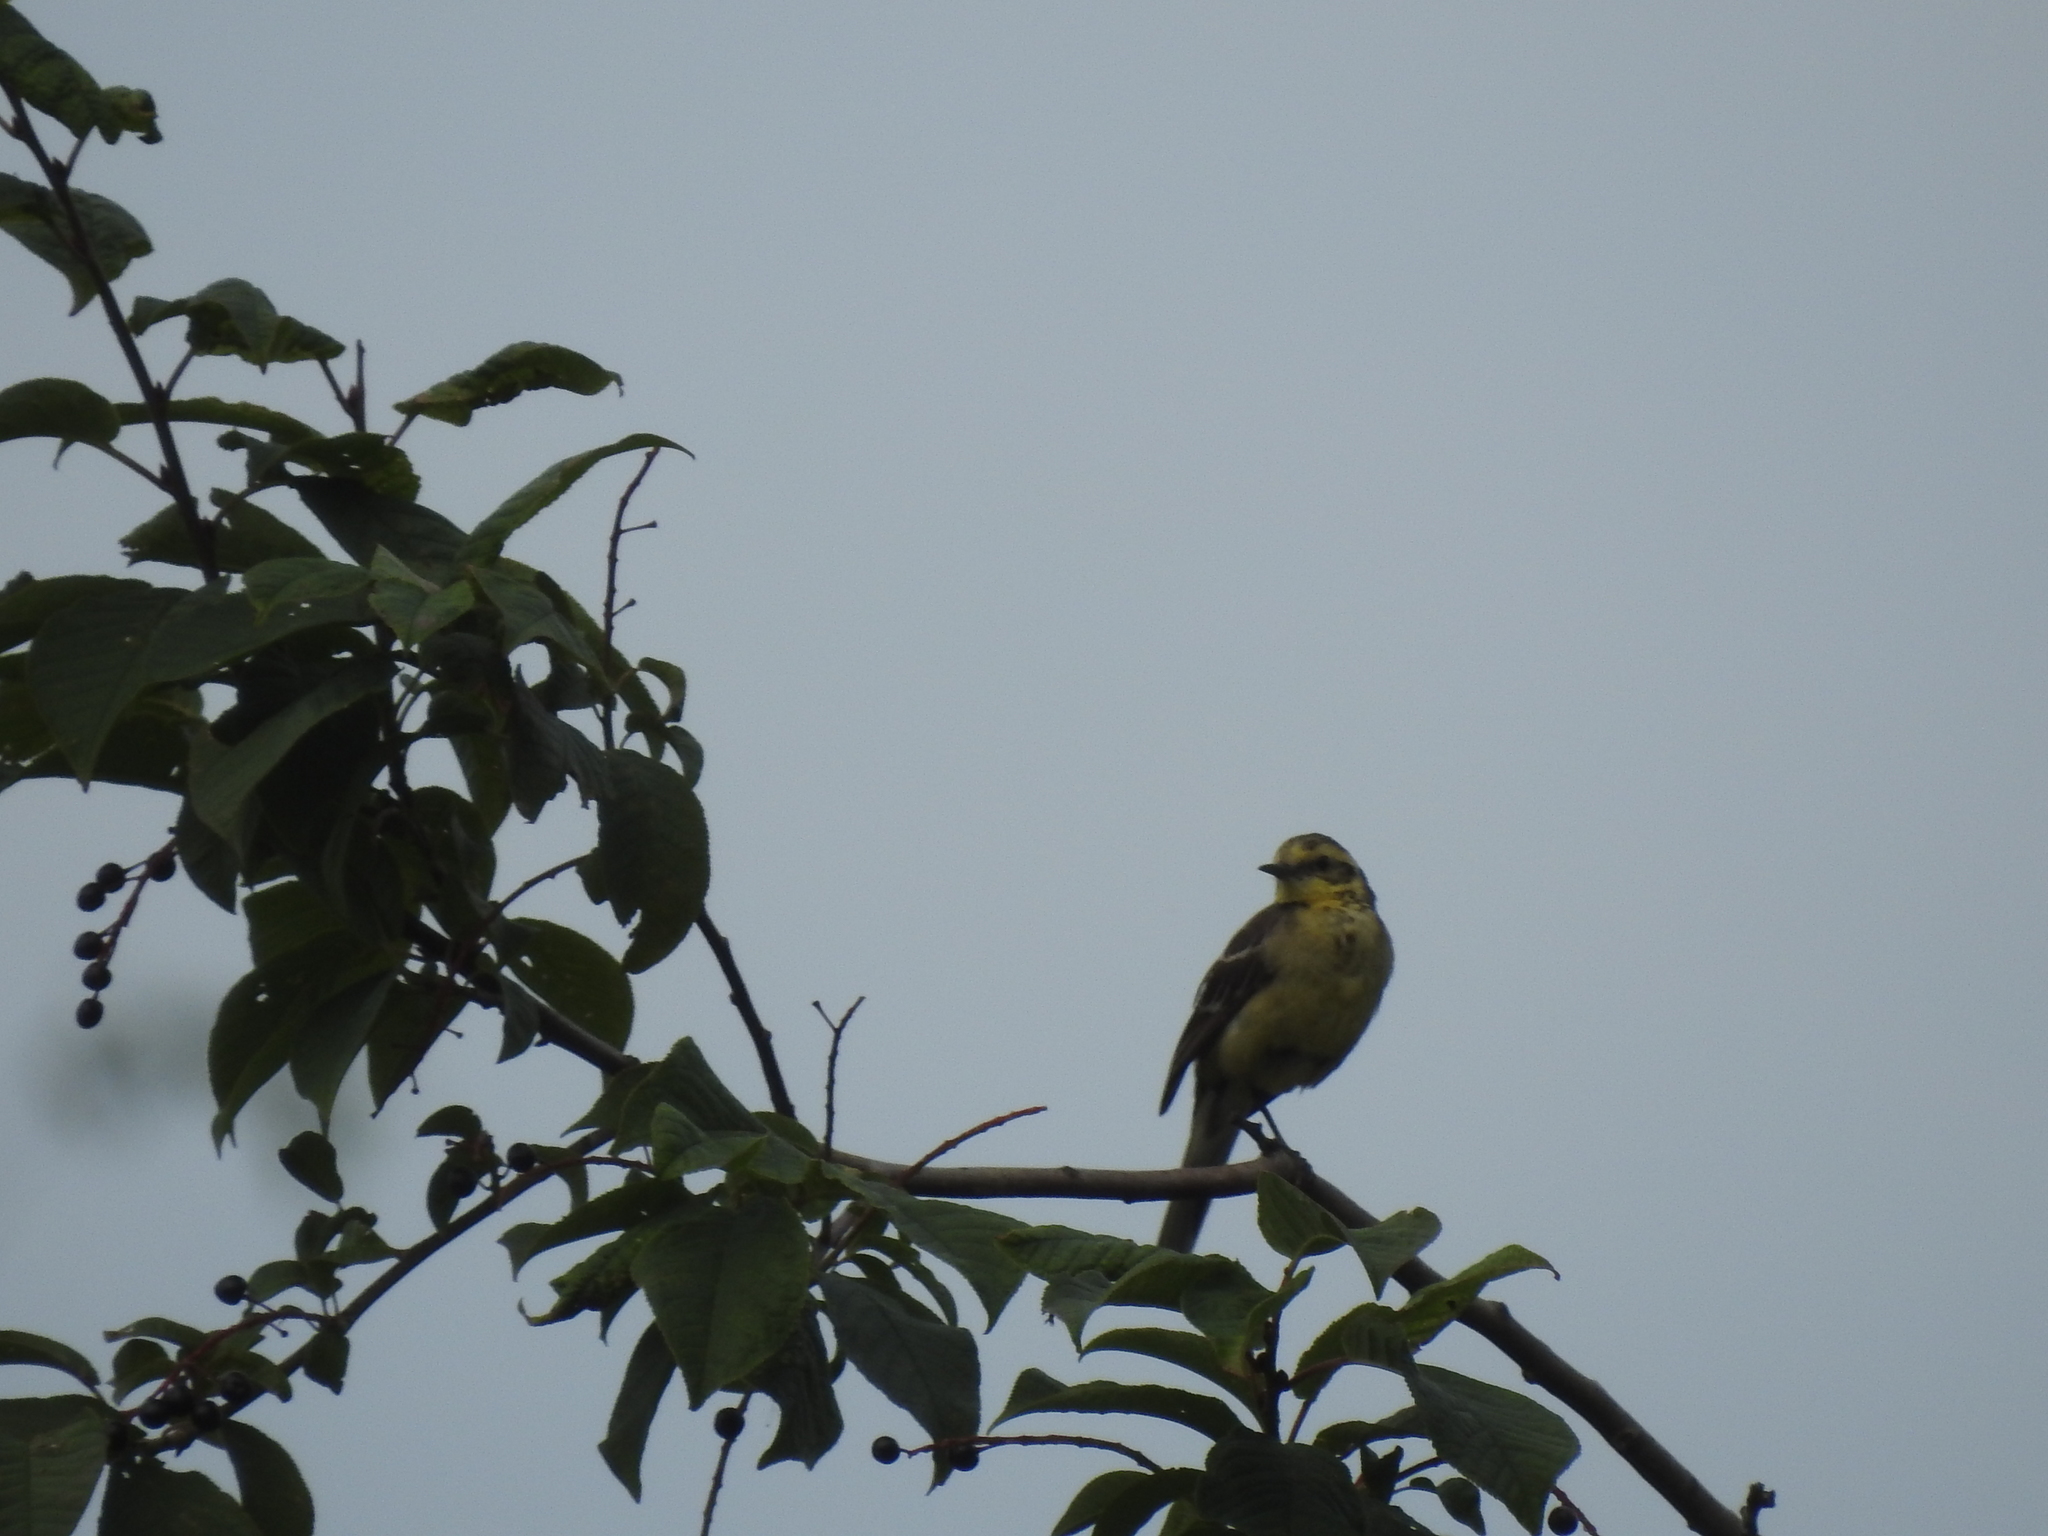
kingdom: Animalia
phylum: Chordata
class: Aves
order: Passeriformes
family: Motacillidae
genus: Motacilla
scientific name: Motacilla citreola
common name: Citrine wagtail
